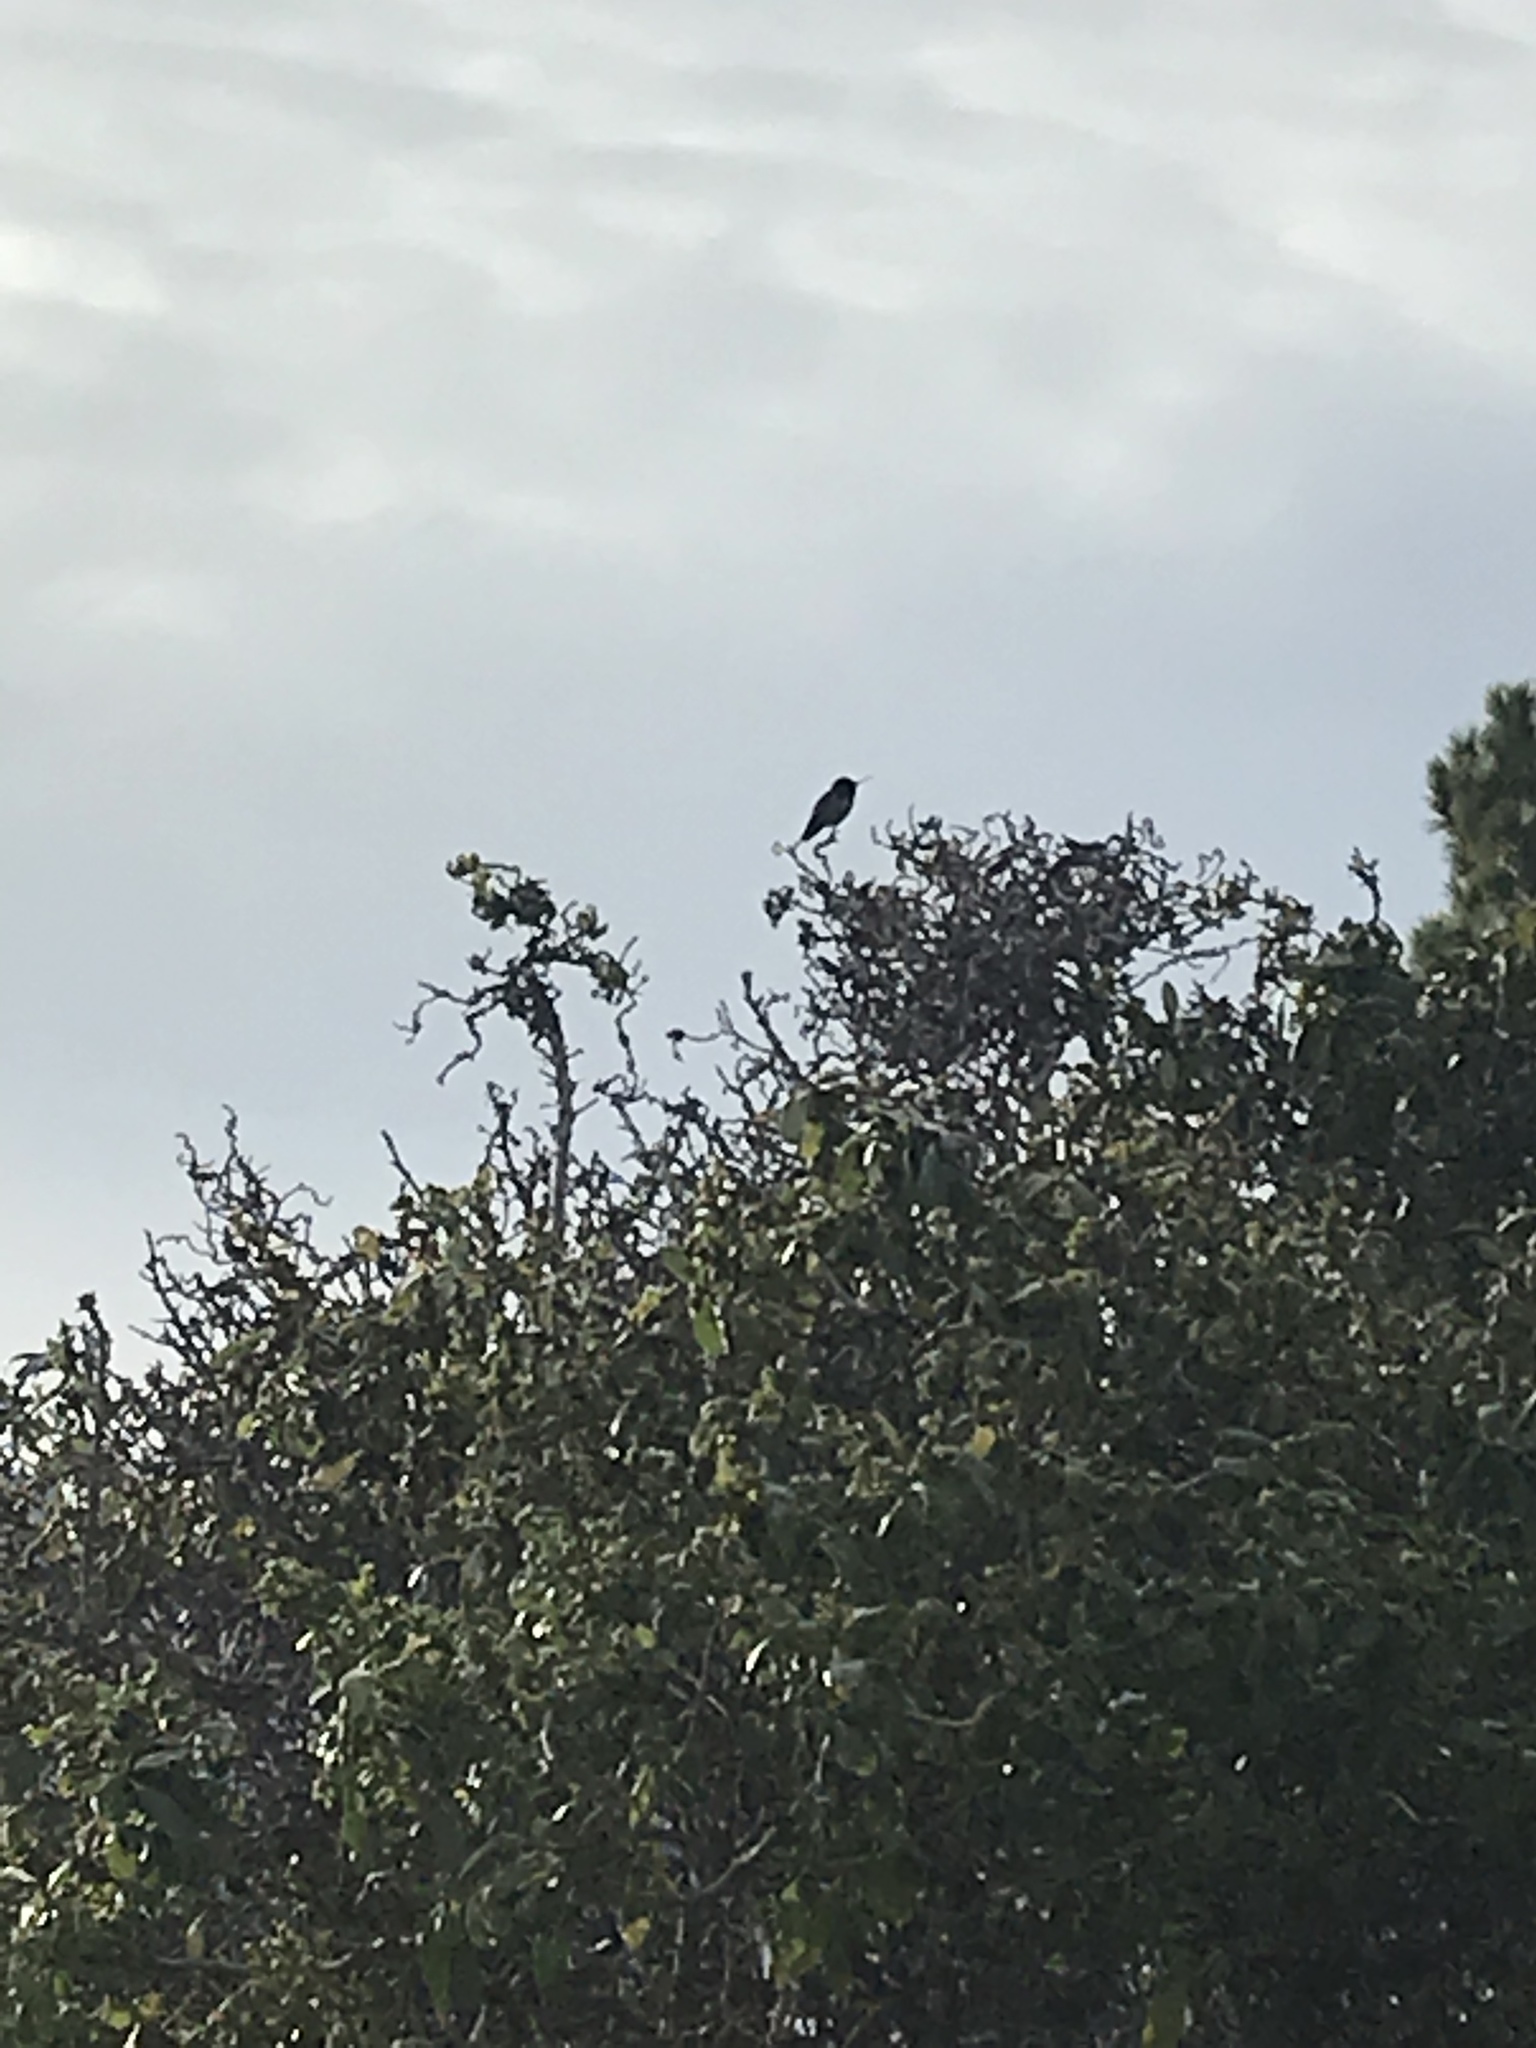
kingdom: Animalia
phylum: Chordata
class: Aves
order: Apodiformes
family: Trochilidae
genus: Calypte
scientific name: Calypte anna
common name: Anna's hummingbird
